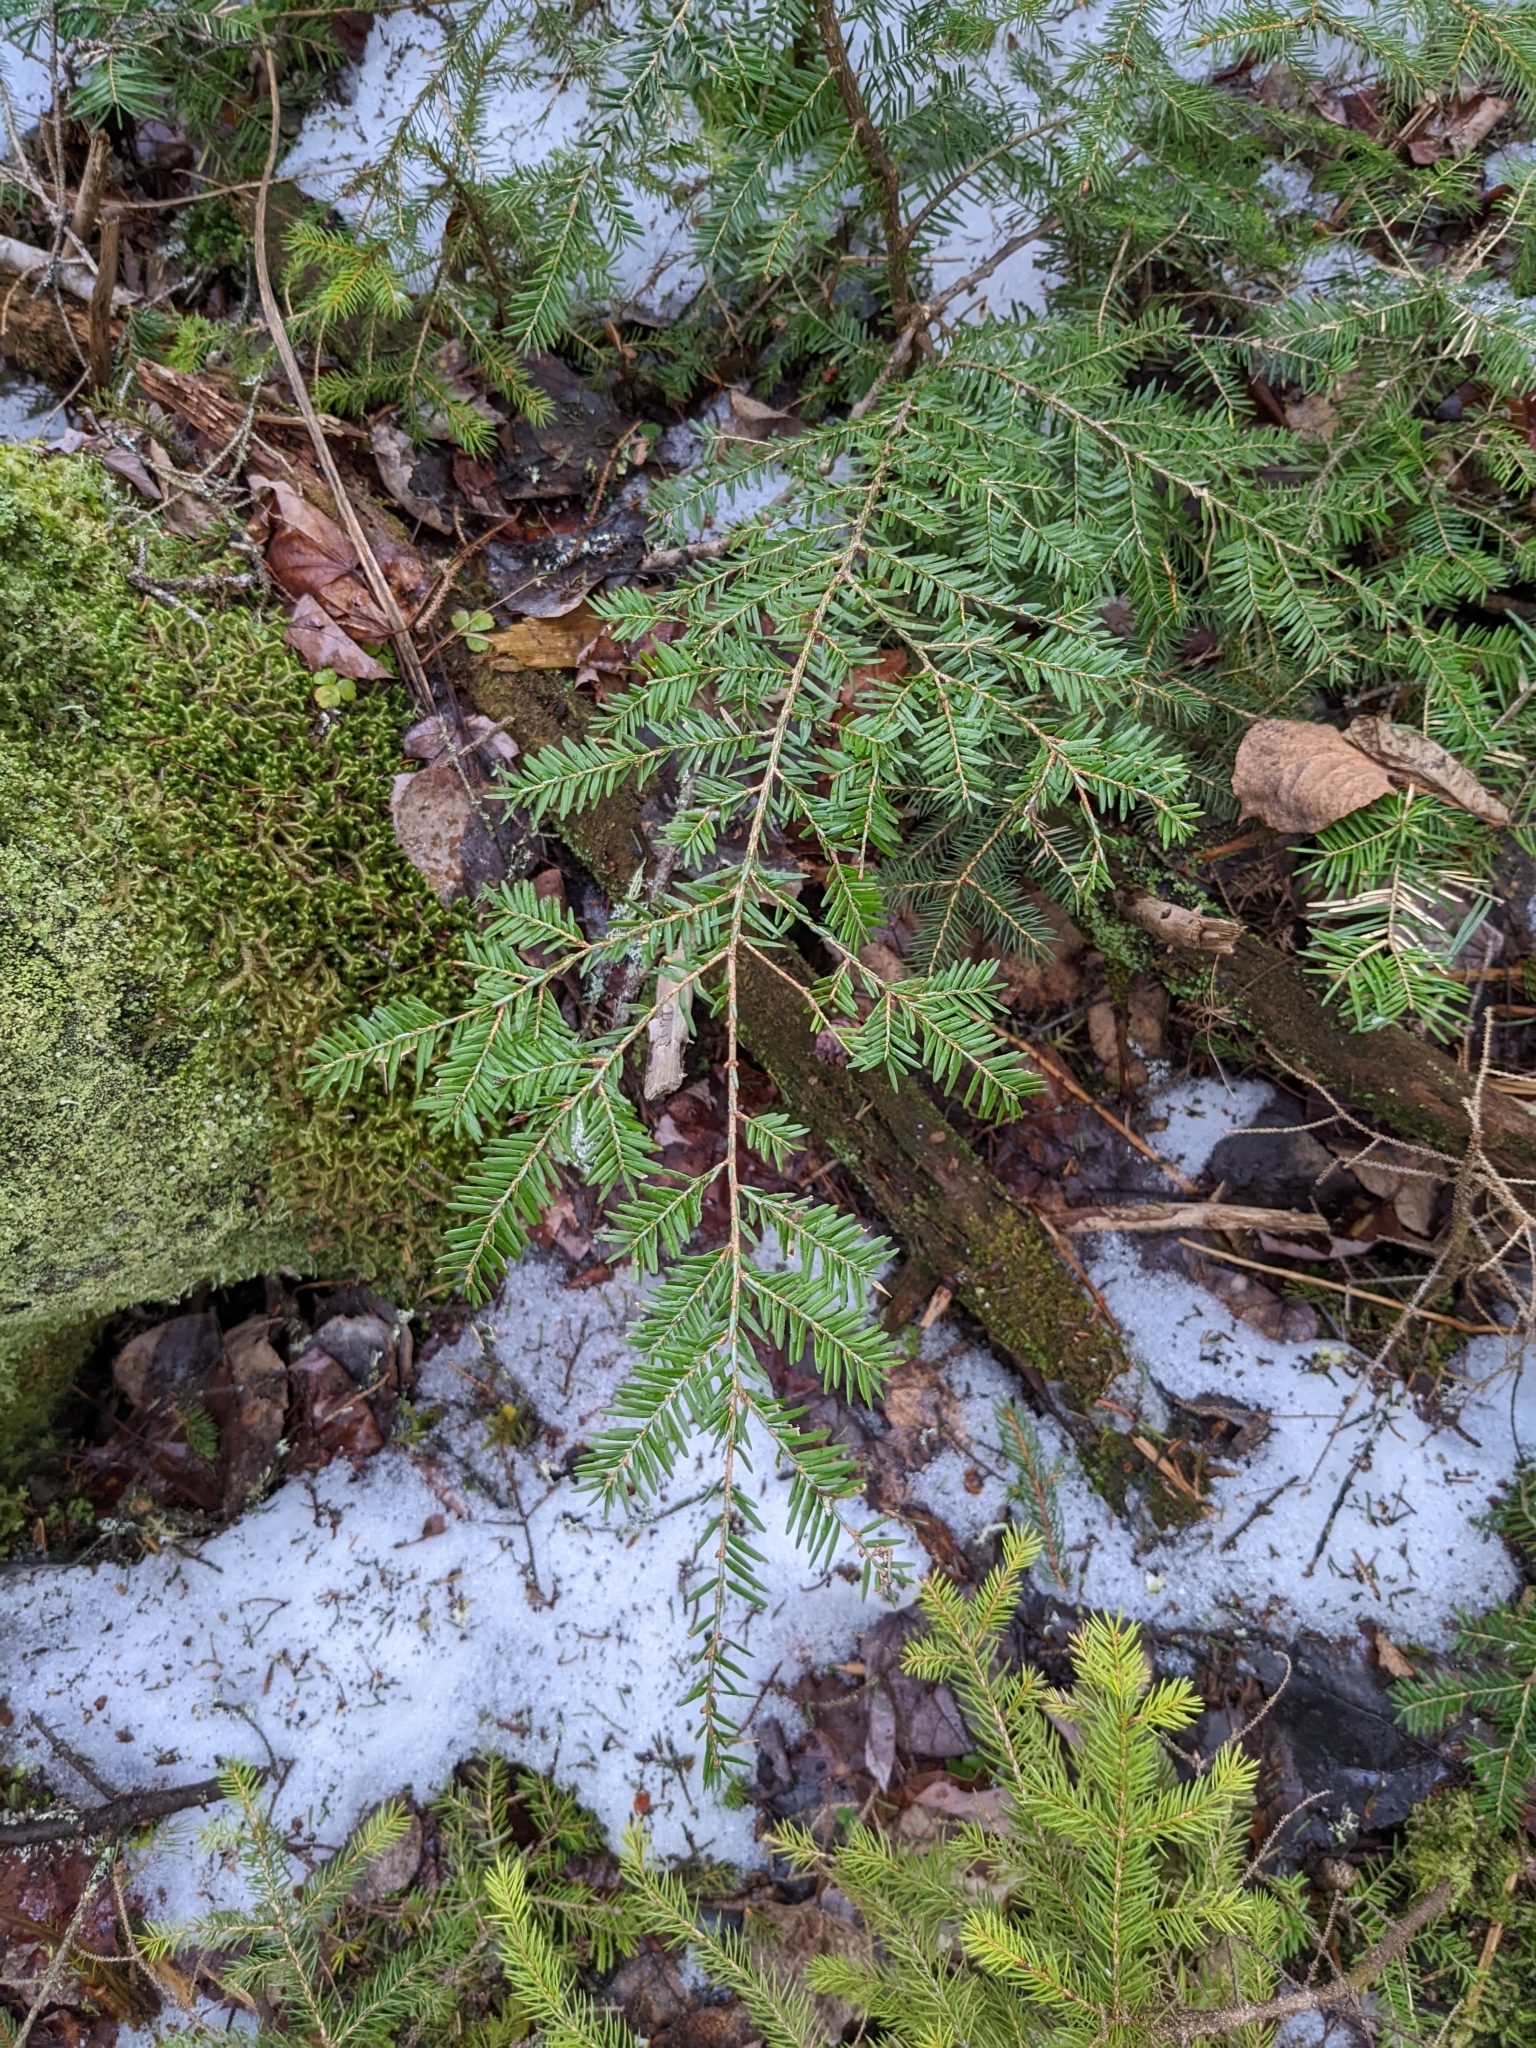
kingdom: Plantae
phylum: Tracheophyta
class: Pinopsida
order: Pinales
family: Pinaceae
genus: Tsuga
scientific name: Tsuga canadensis
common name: Eastern hemlock
